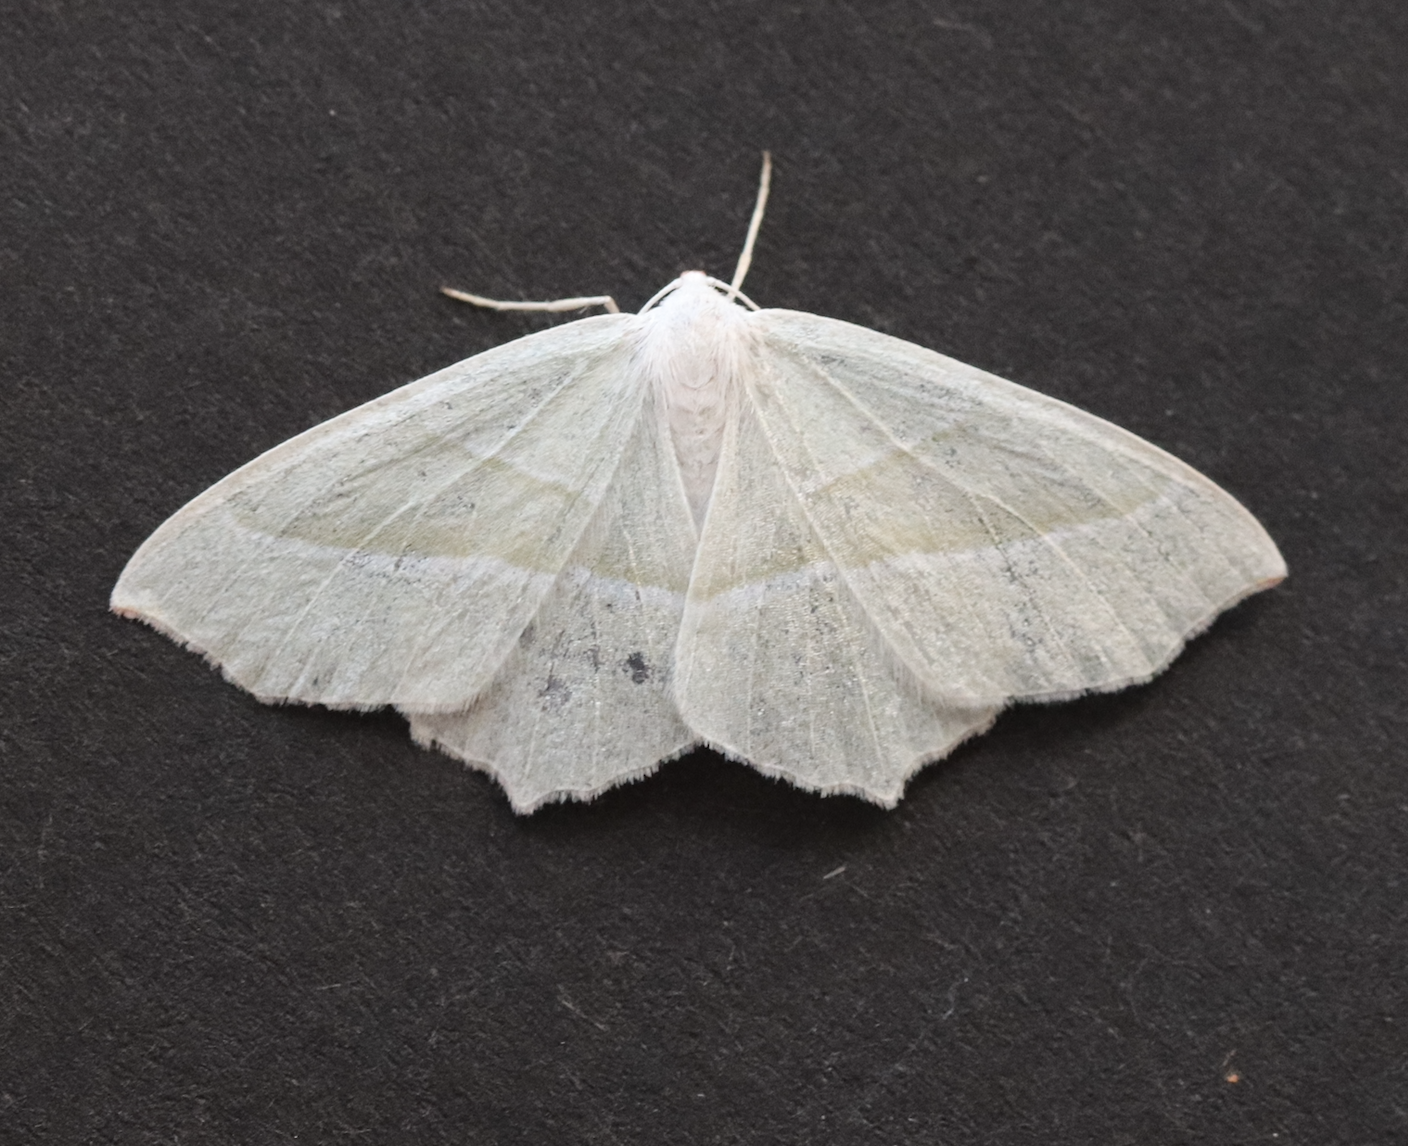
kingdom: Animalia
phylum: Arthropoda
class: Insecta
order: Lepidoptera
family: Geometridae
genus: Campaea
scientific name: Campaea margaritaria
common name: Light emerald
